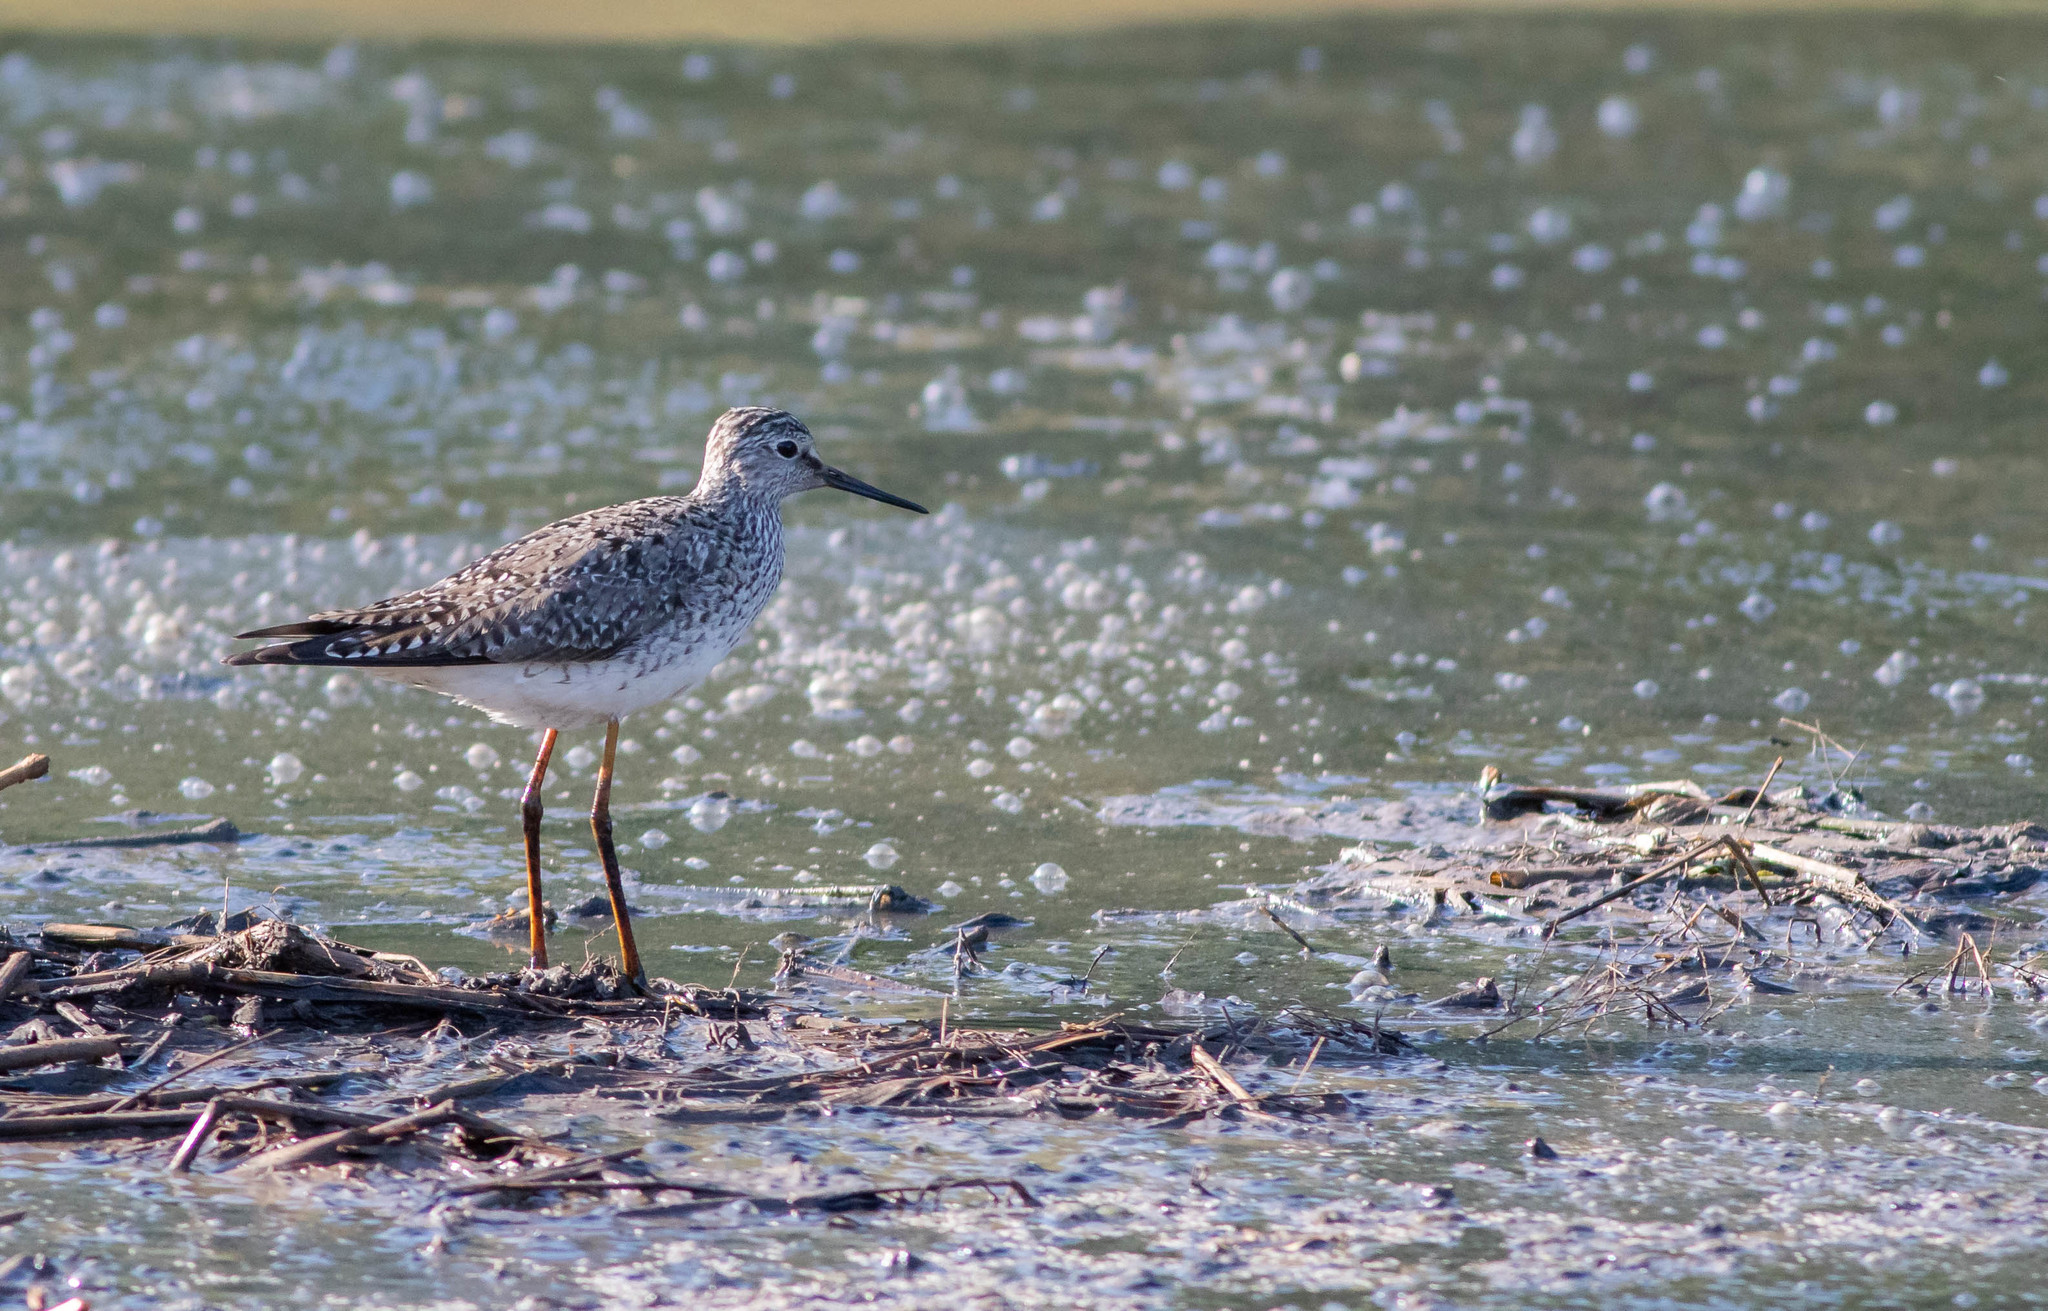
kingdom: Animalia
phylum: Chordata
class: Aves
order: Charadriiformes
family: Scolopacidae
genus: Tringa
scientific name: Tringa flavipes
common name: Lesser yellowlegs
